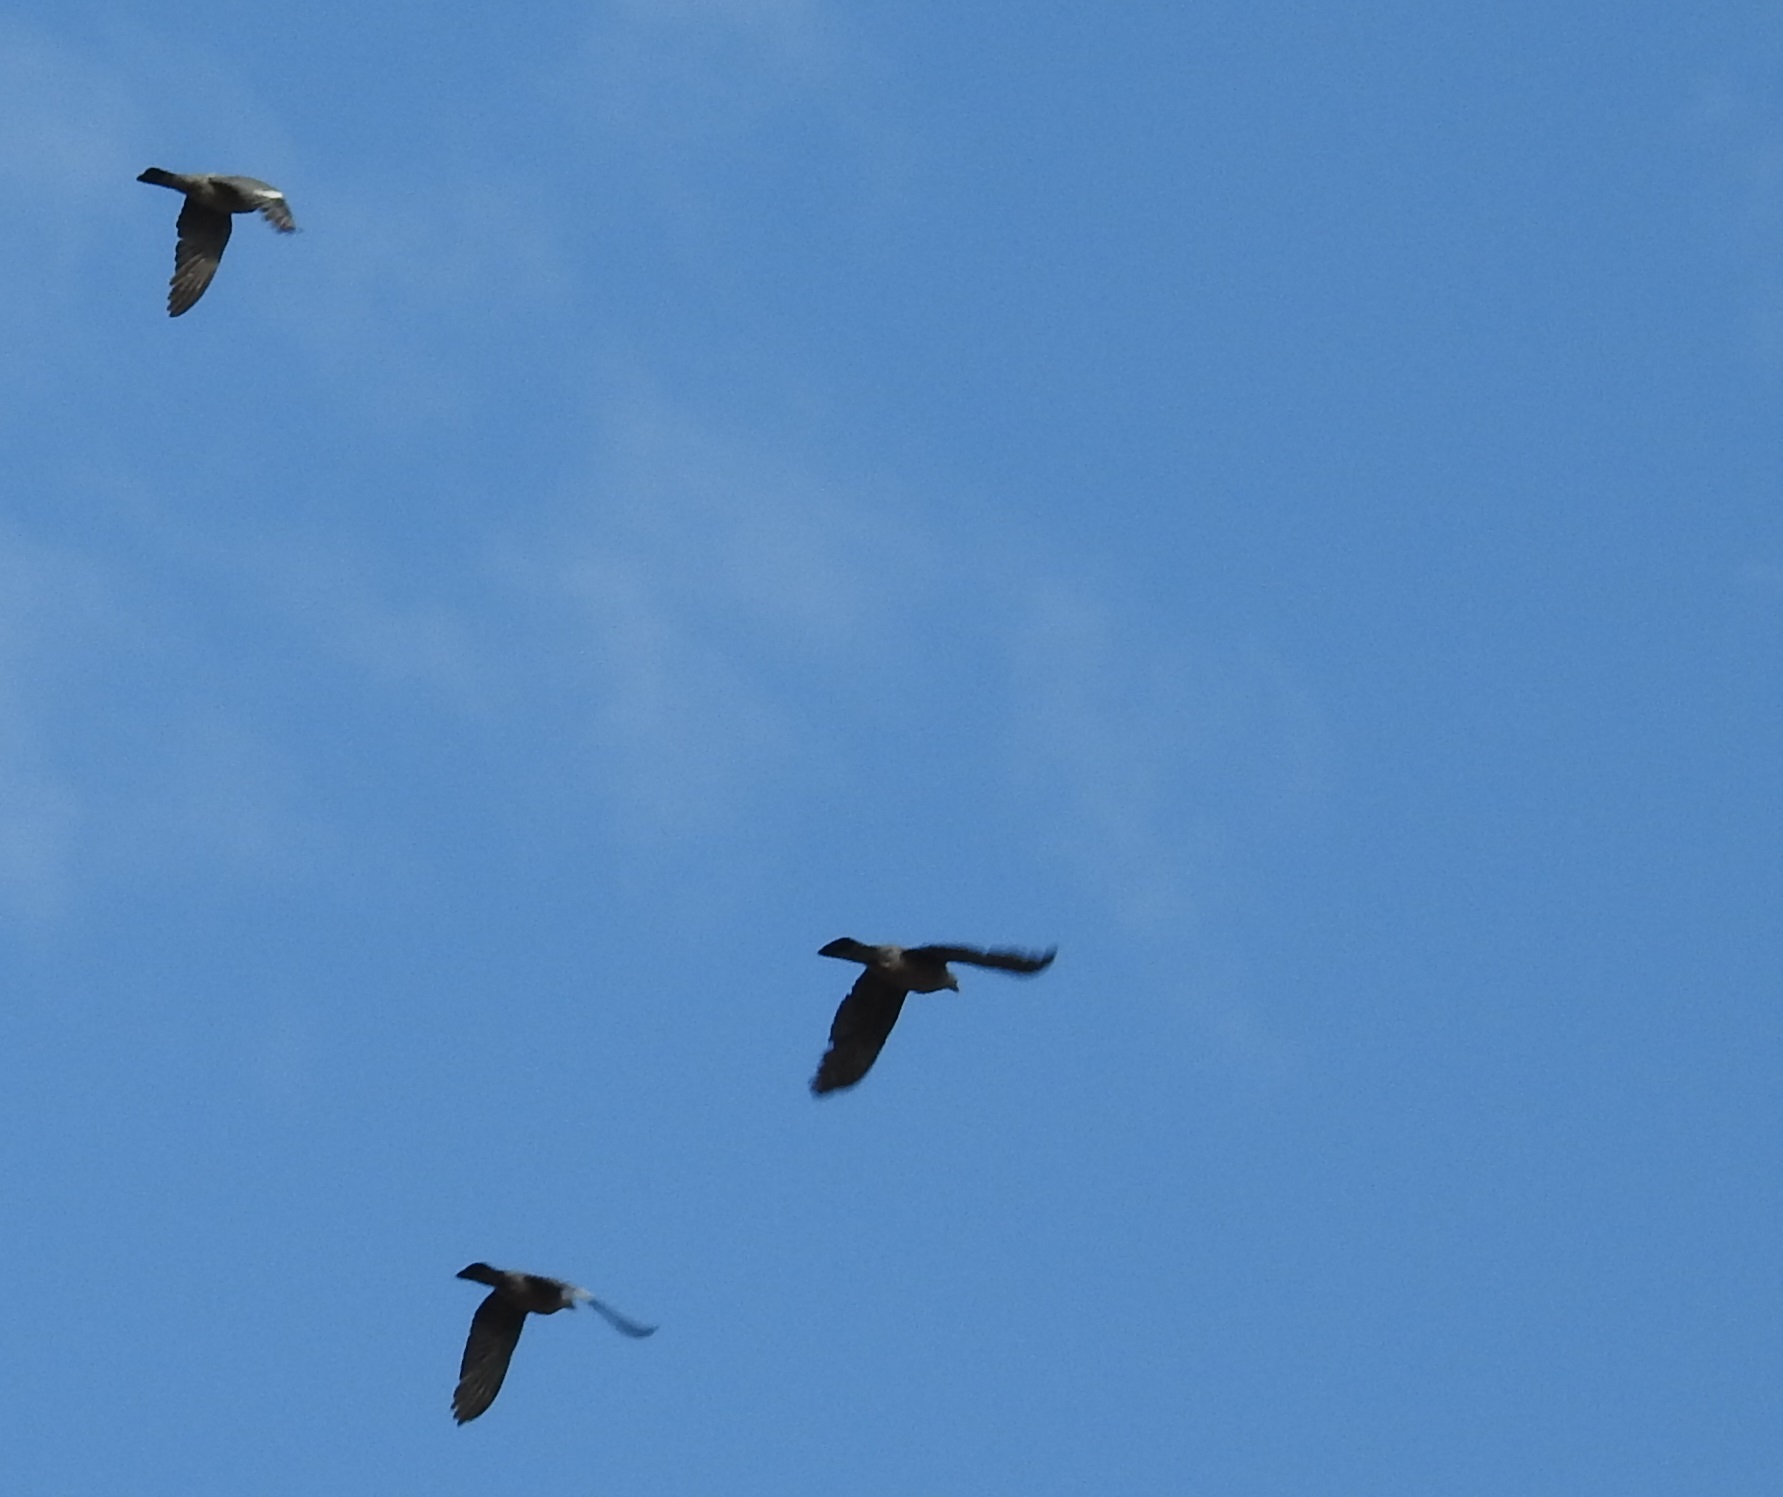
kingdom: Animalia
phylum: Chordata
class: Aves
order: Columbiformes
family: Columbidae
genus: Columba
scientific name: Columba palumbus
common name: Common wood pigeon
